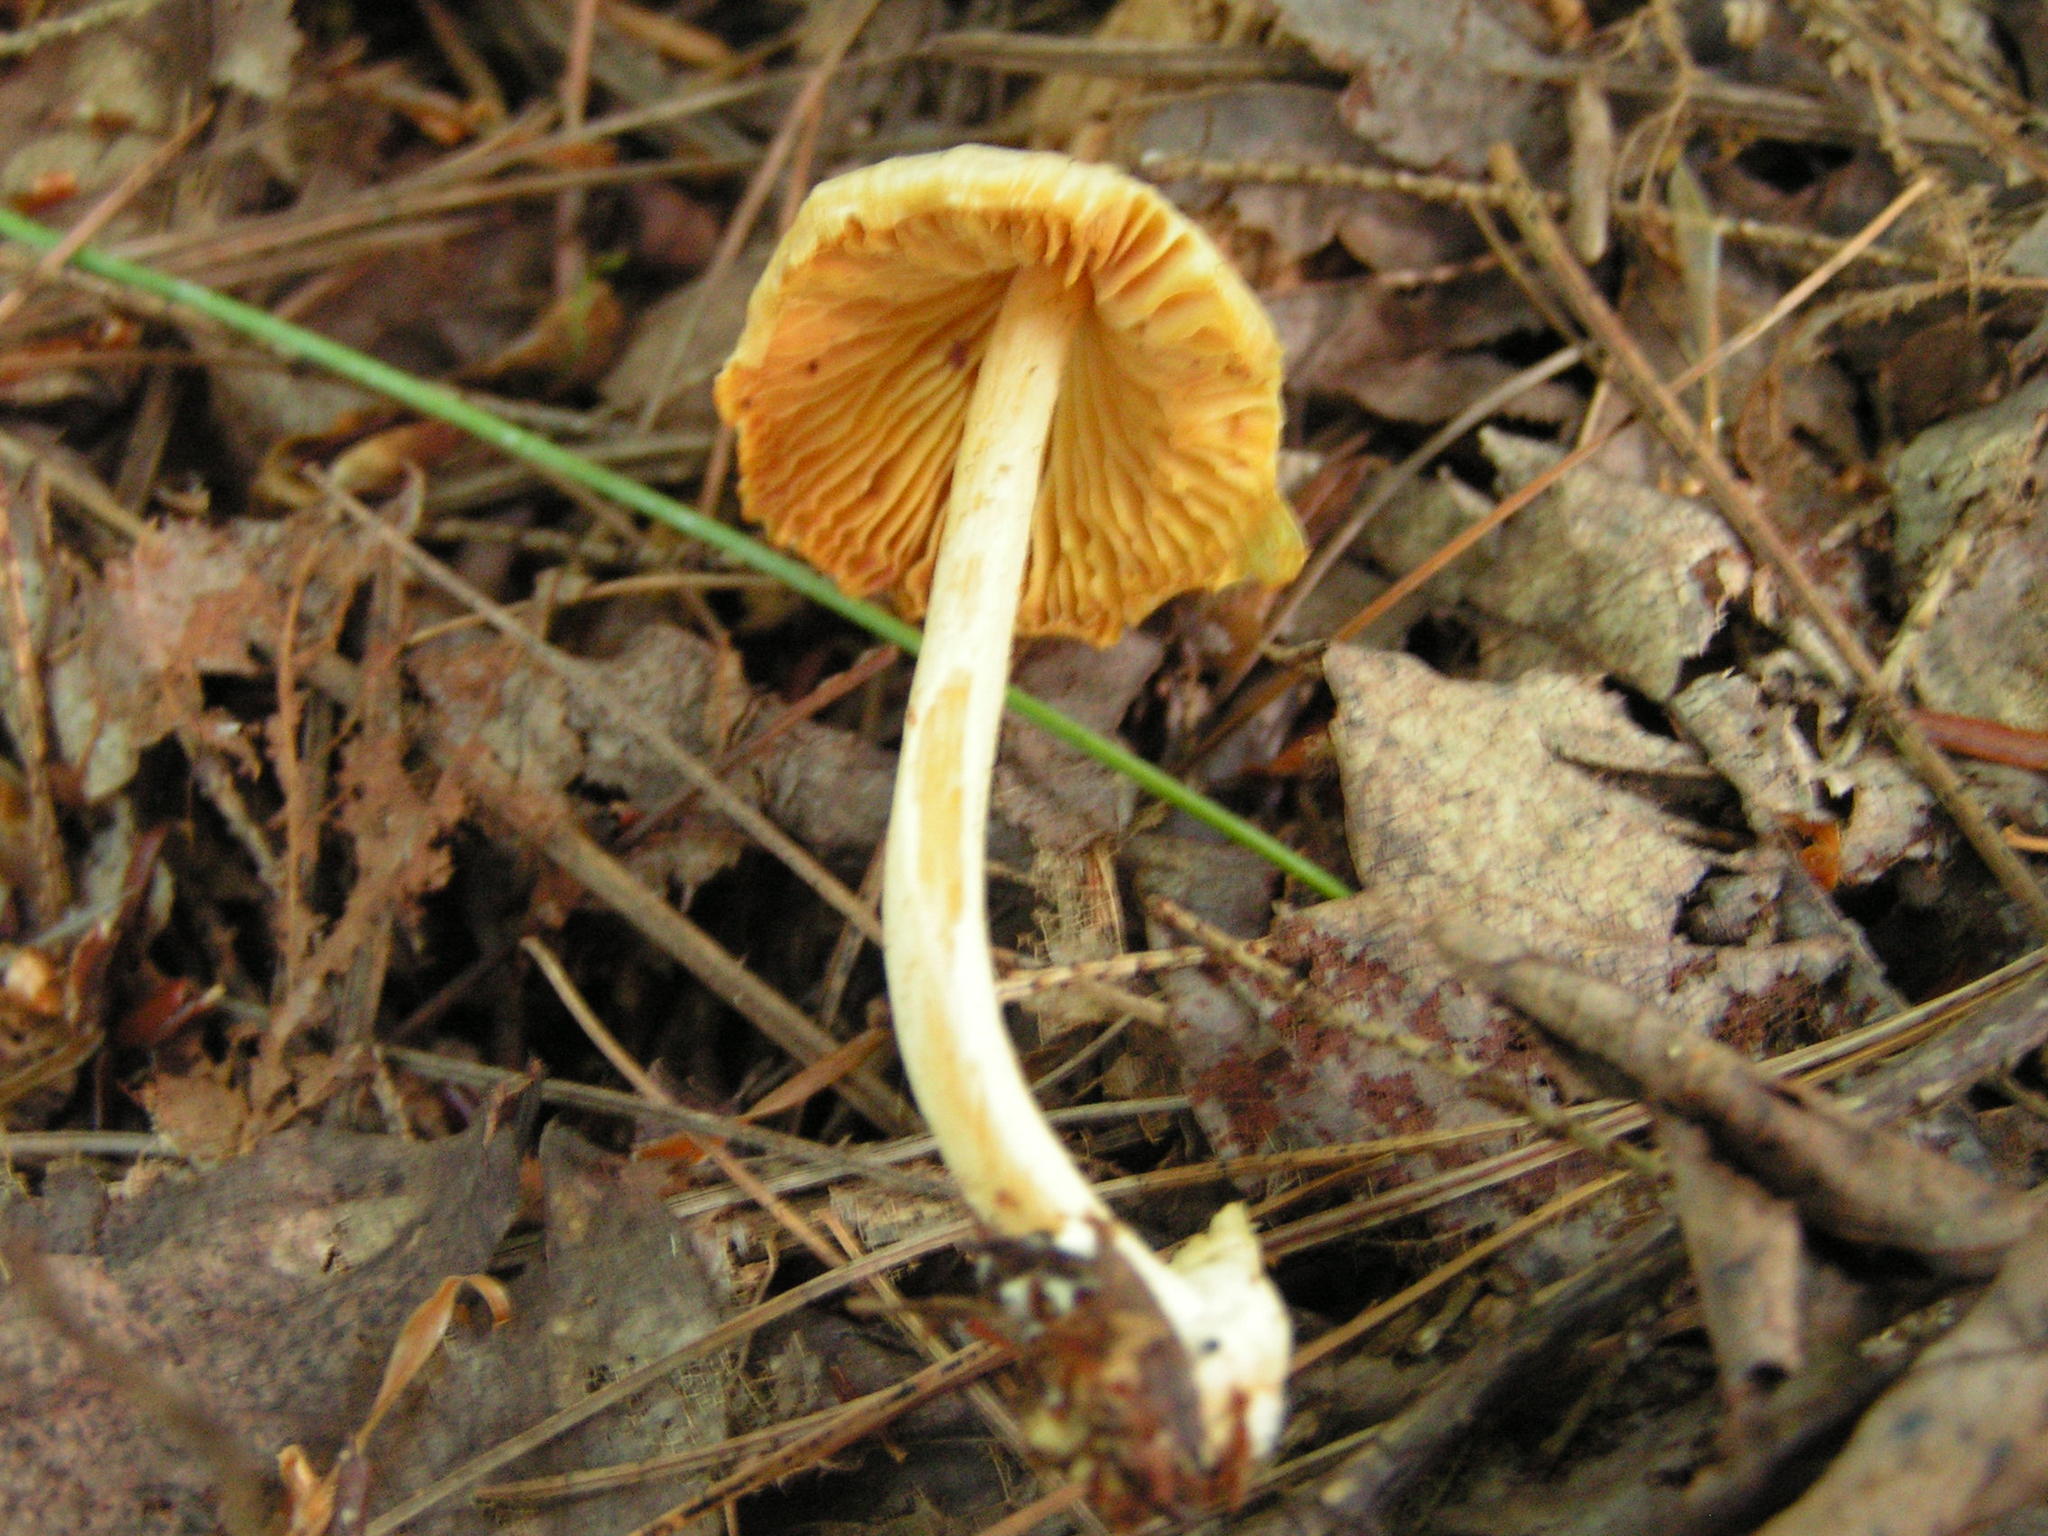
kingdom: Fungi
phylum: Basidiomycota
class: Agaricomycetes
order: Agaricales
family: Entolomataceae
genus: Entoloma
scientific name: Entoloma murrayi
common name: Yellow unicorn entoloma
